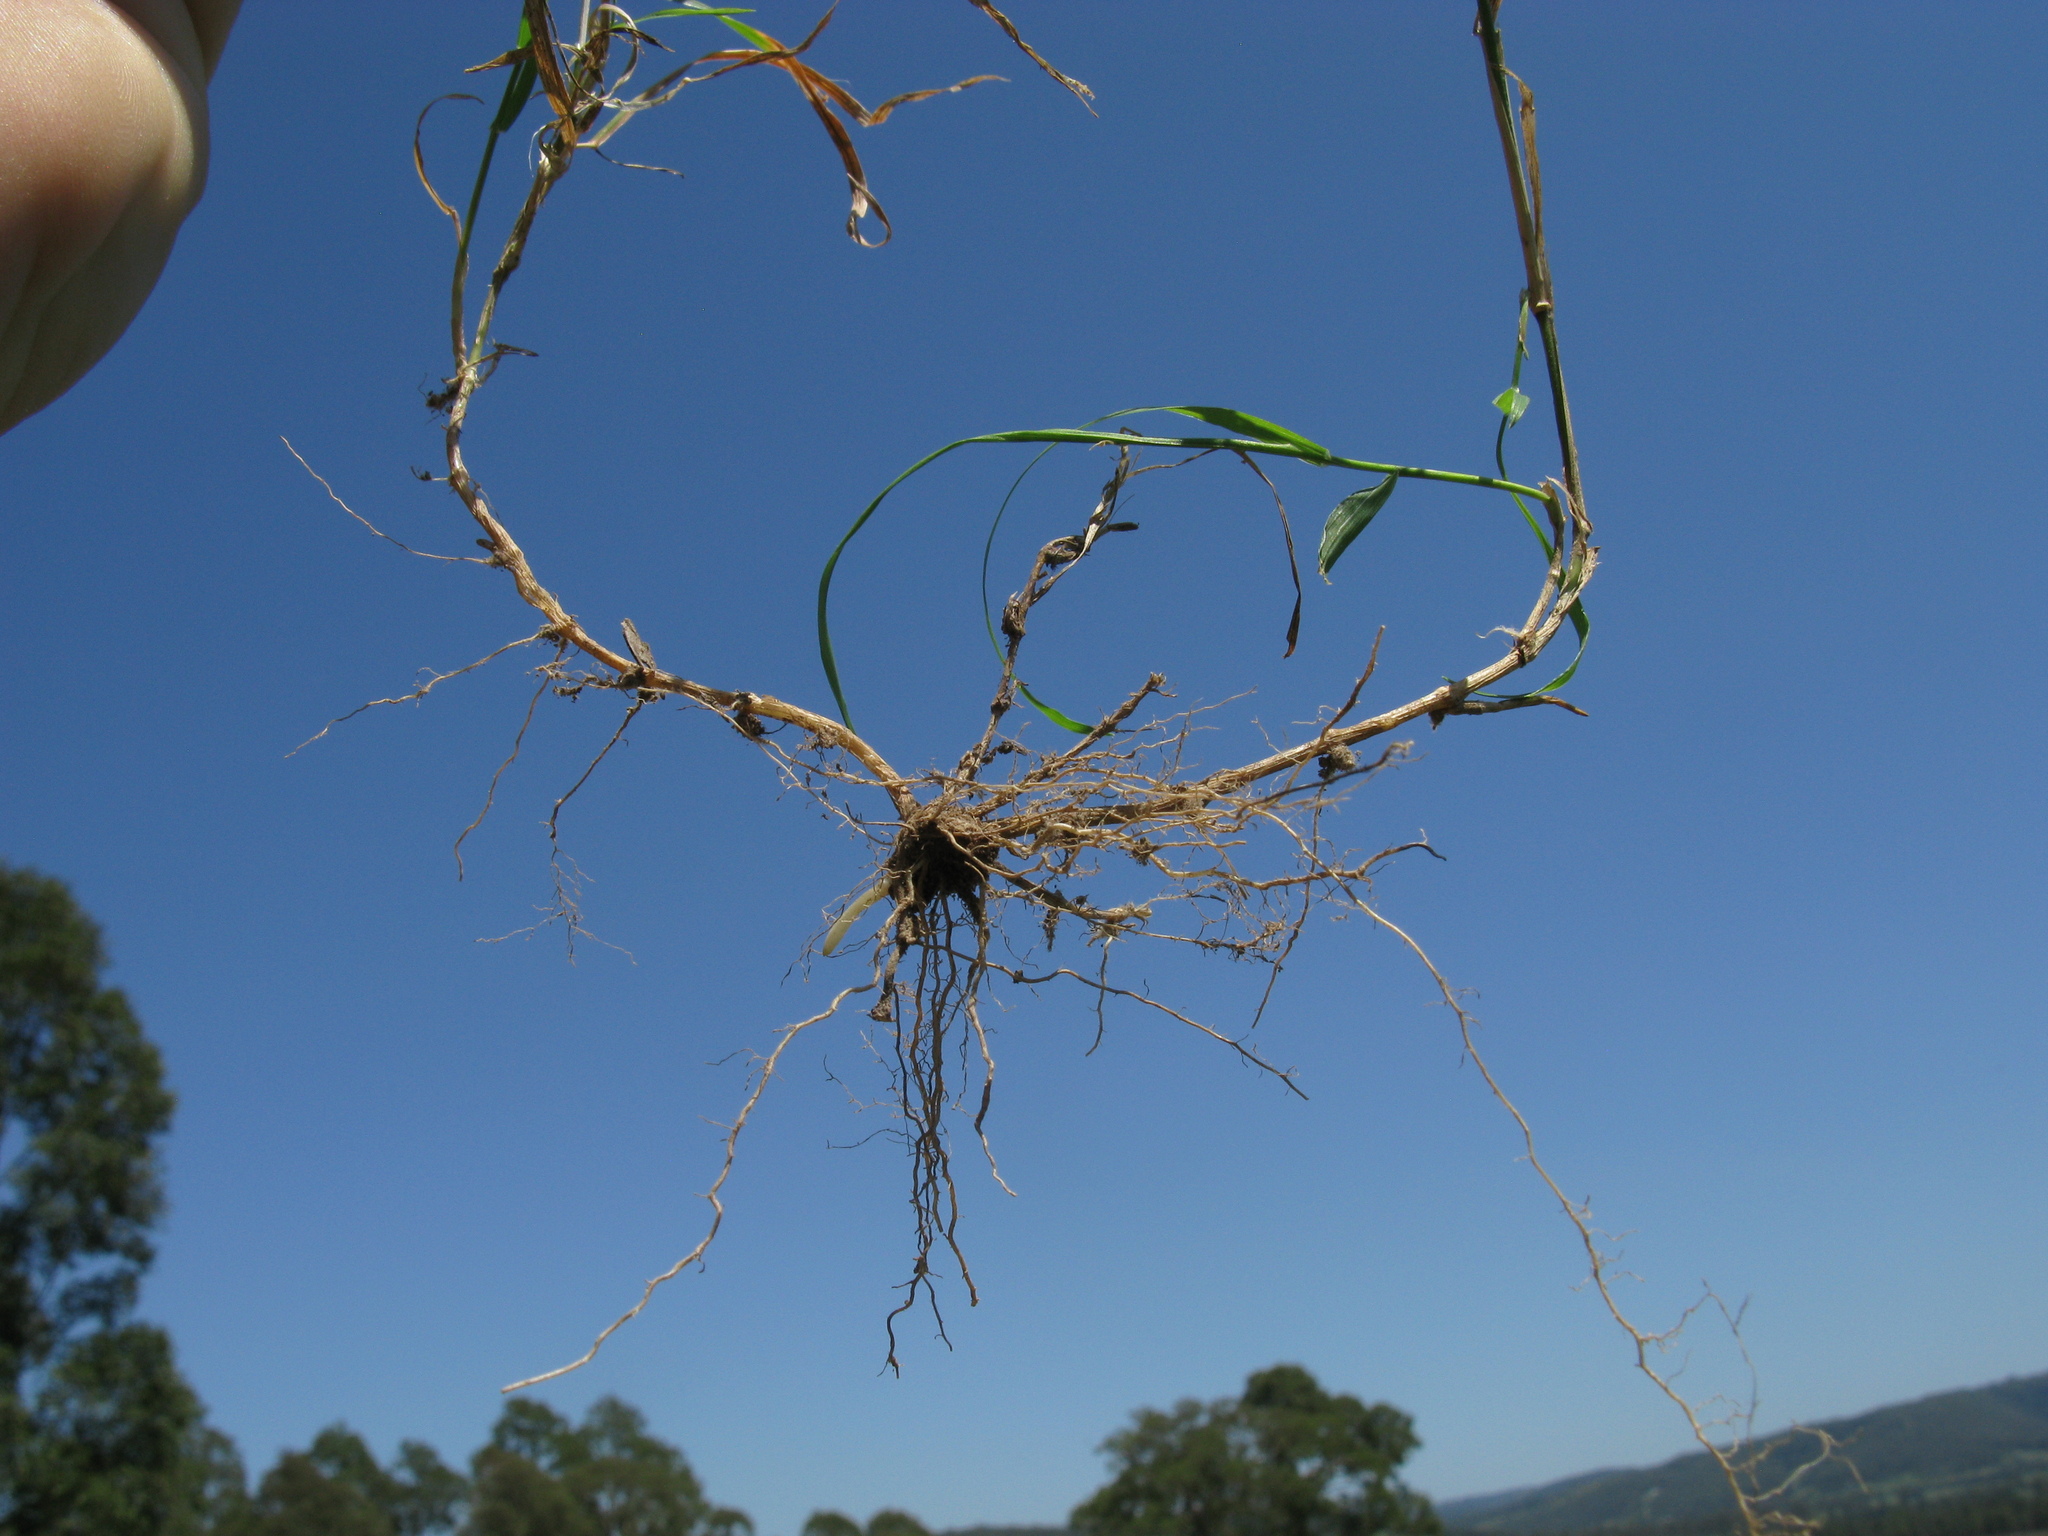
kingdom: Plantae
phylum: Tracheophyta
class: Liliopsida
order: Poales
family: Poaceae
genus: Echinopogon
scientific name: Echinopogon ovatus
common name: Hedgehog-grass
